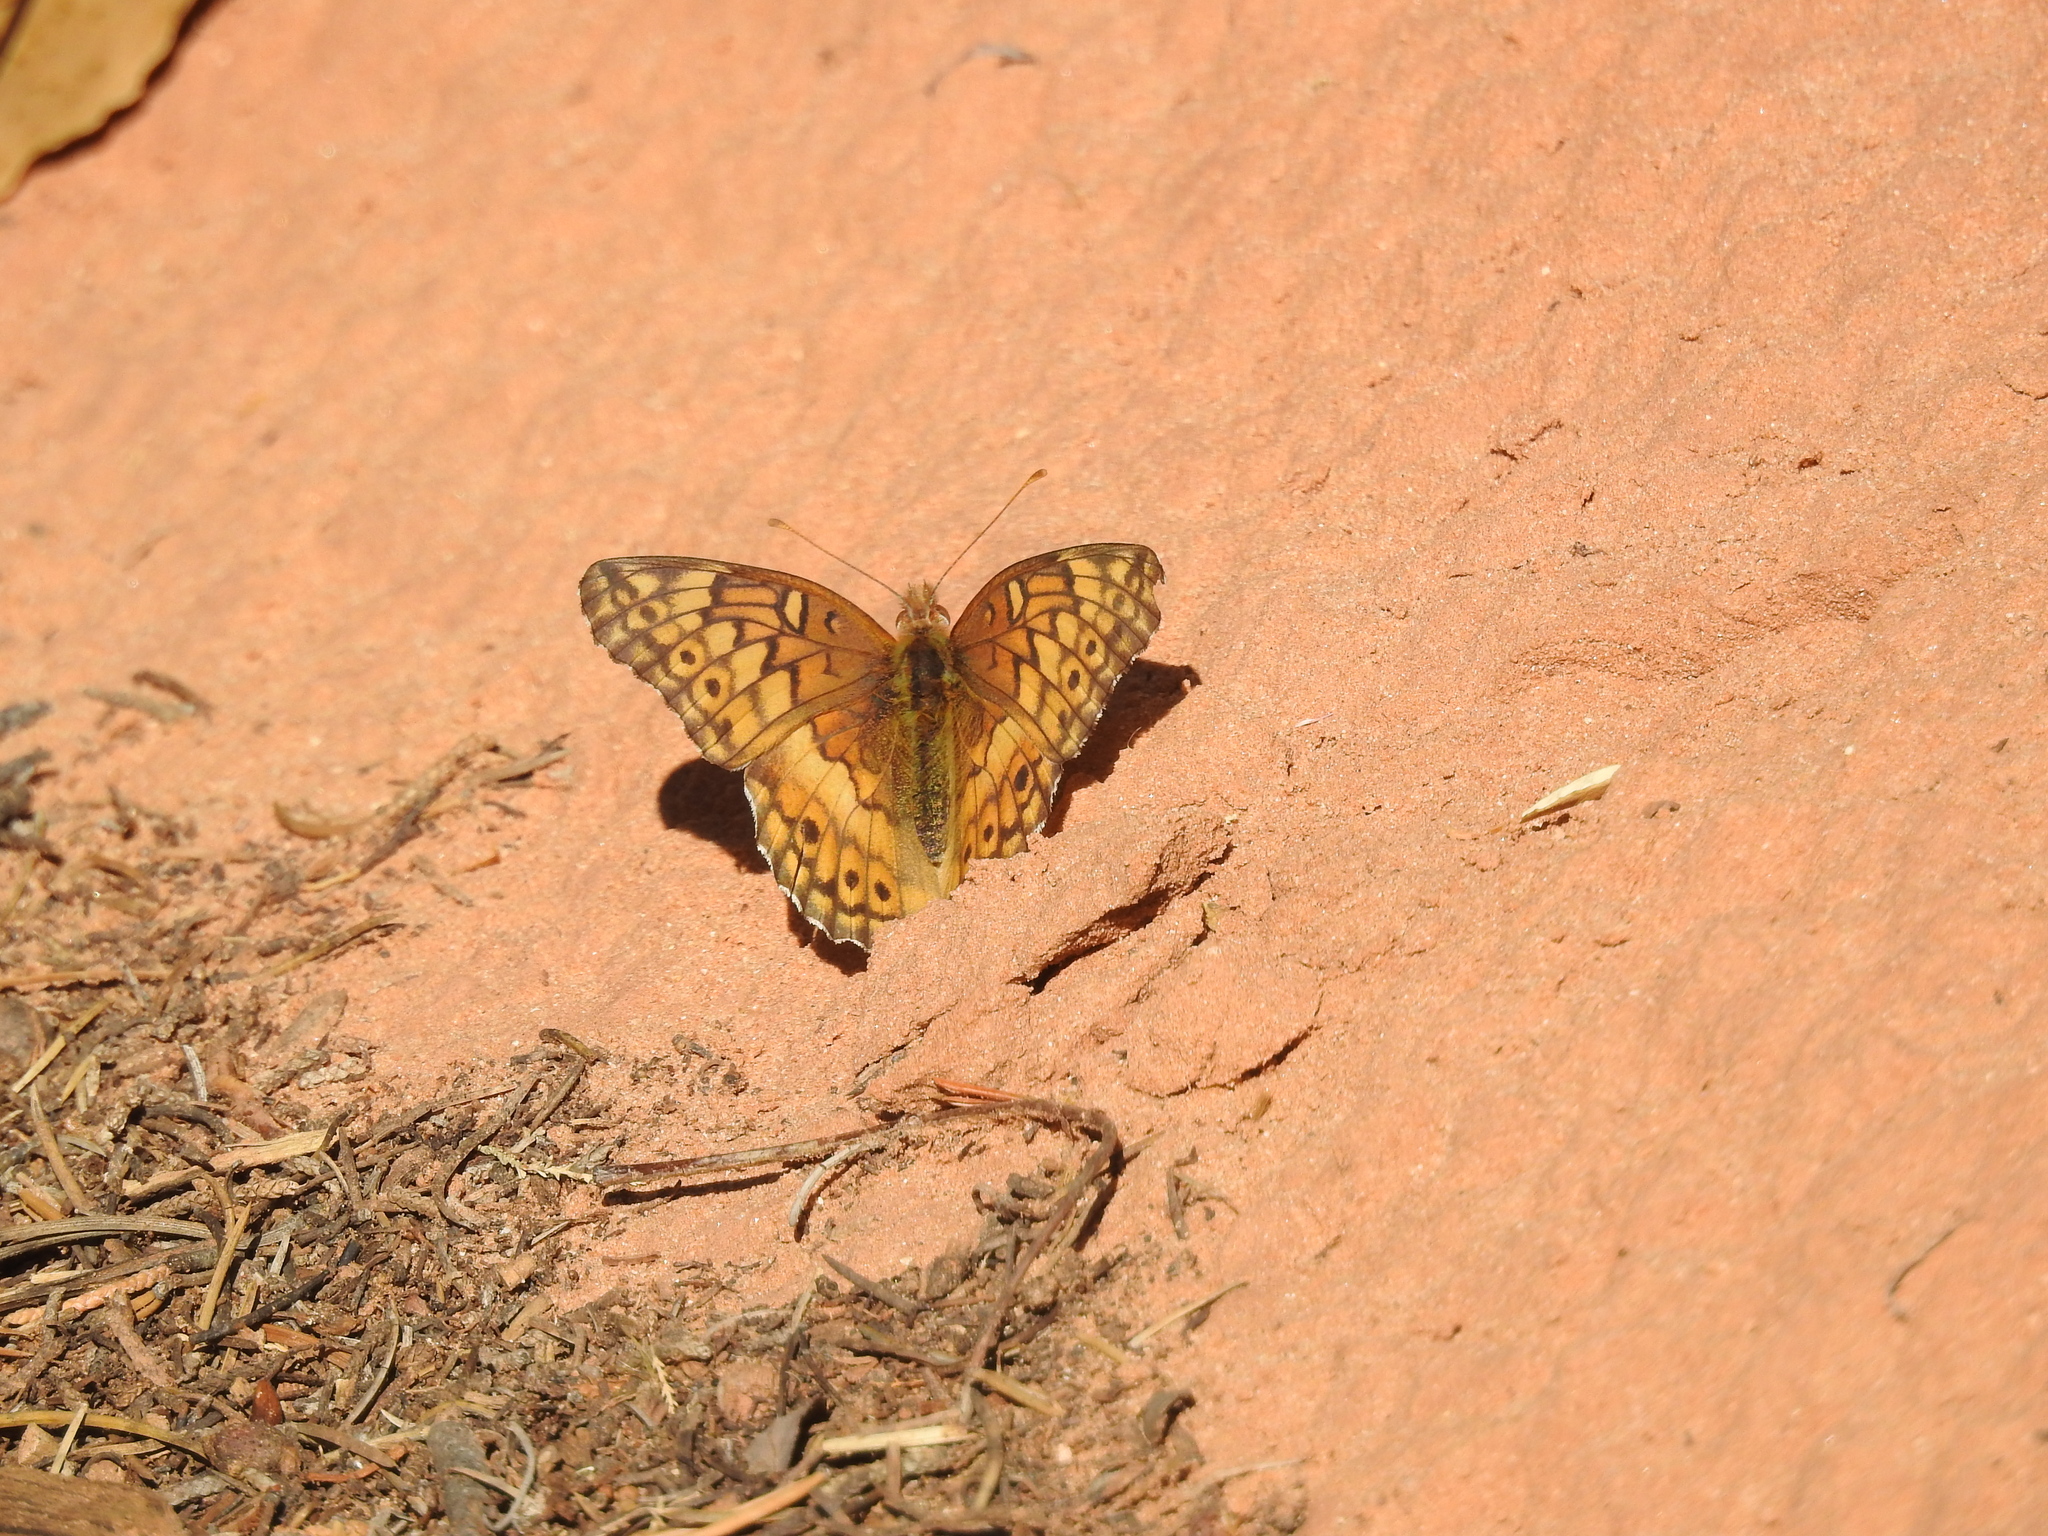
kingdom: Animalia
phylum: Arthropoda
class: Insecta
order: Lepidoptera
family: Nymphalidae
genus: Euptoieta
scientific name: Euptoieta claudia
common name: Variegated fritillary
